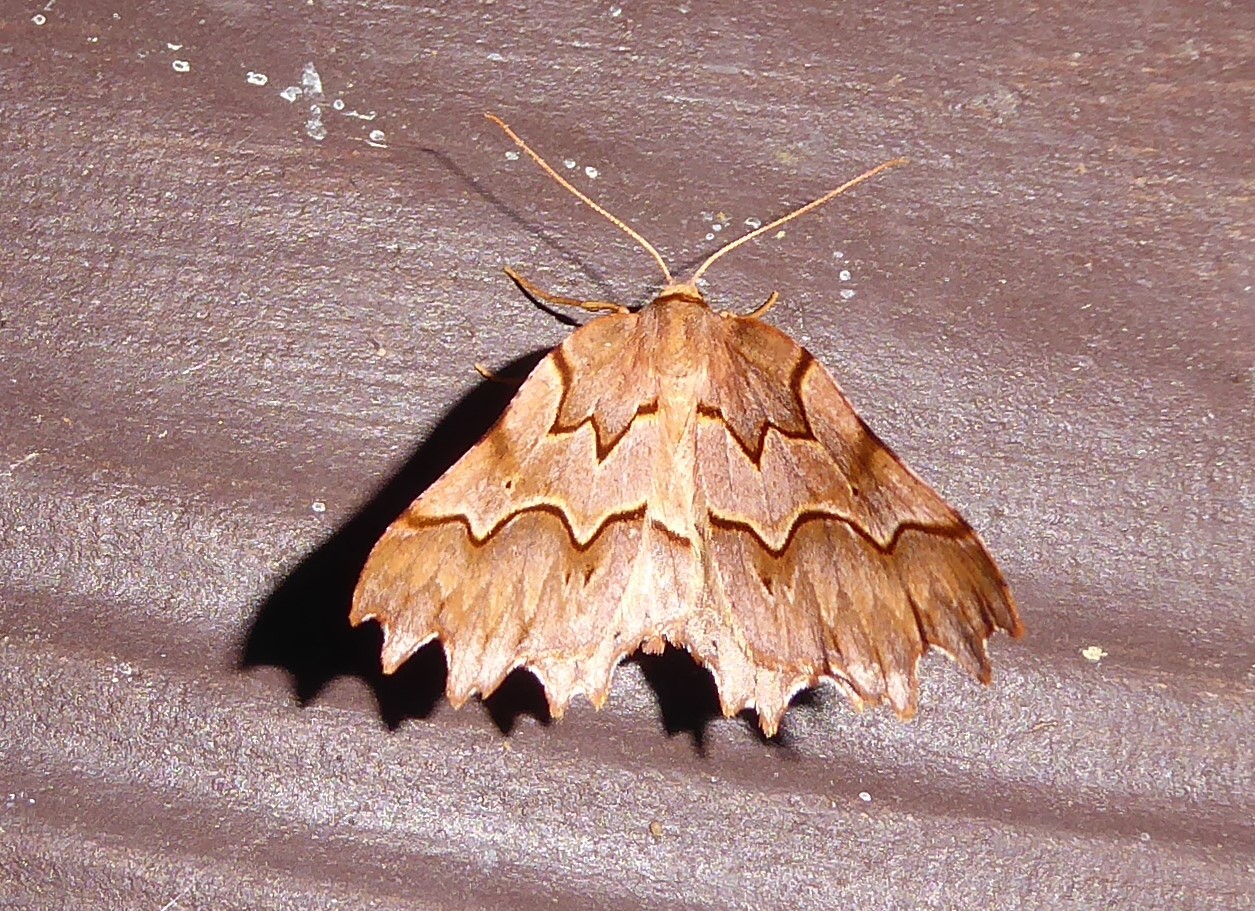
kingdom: Animalia
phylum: Arthropoda
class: Insecta
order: Lepidoptera
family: Geometridae
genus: Ischalis
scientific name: Ischalis fortinata
